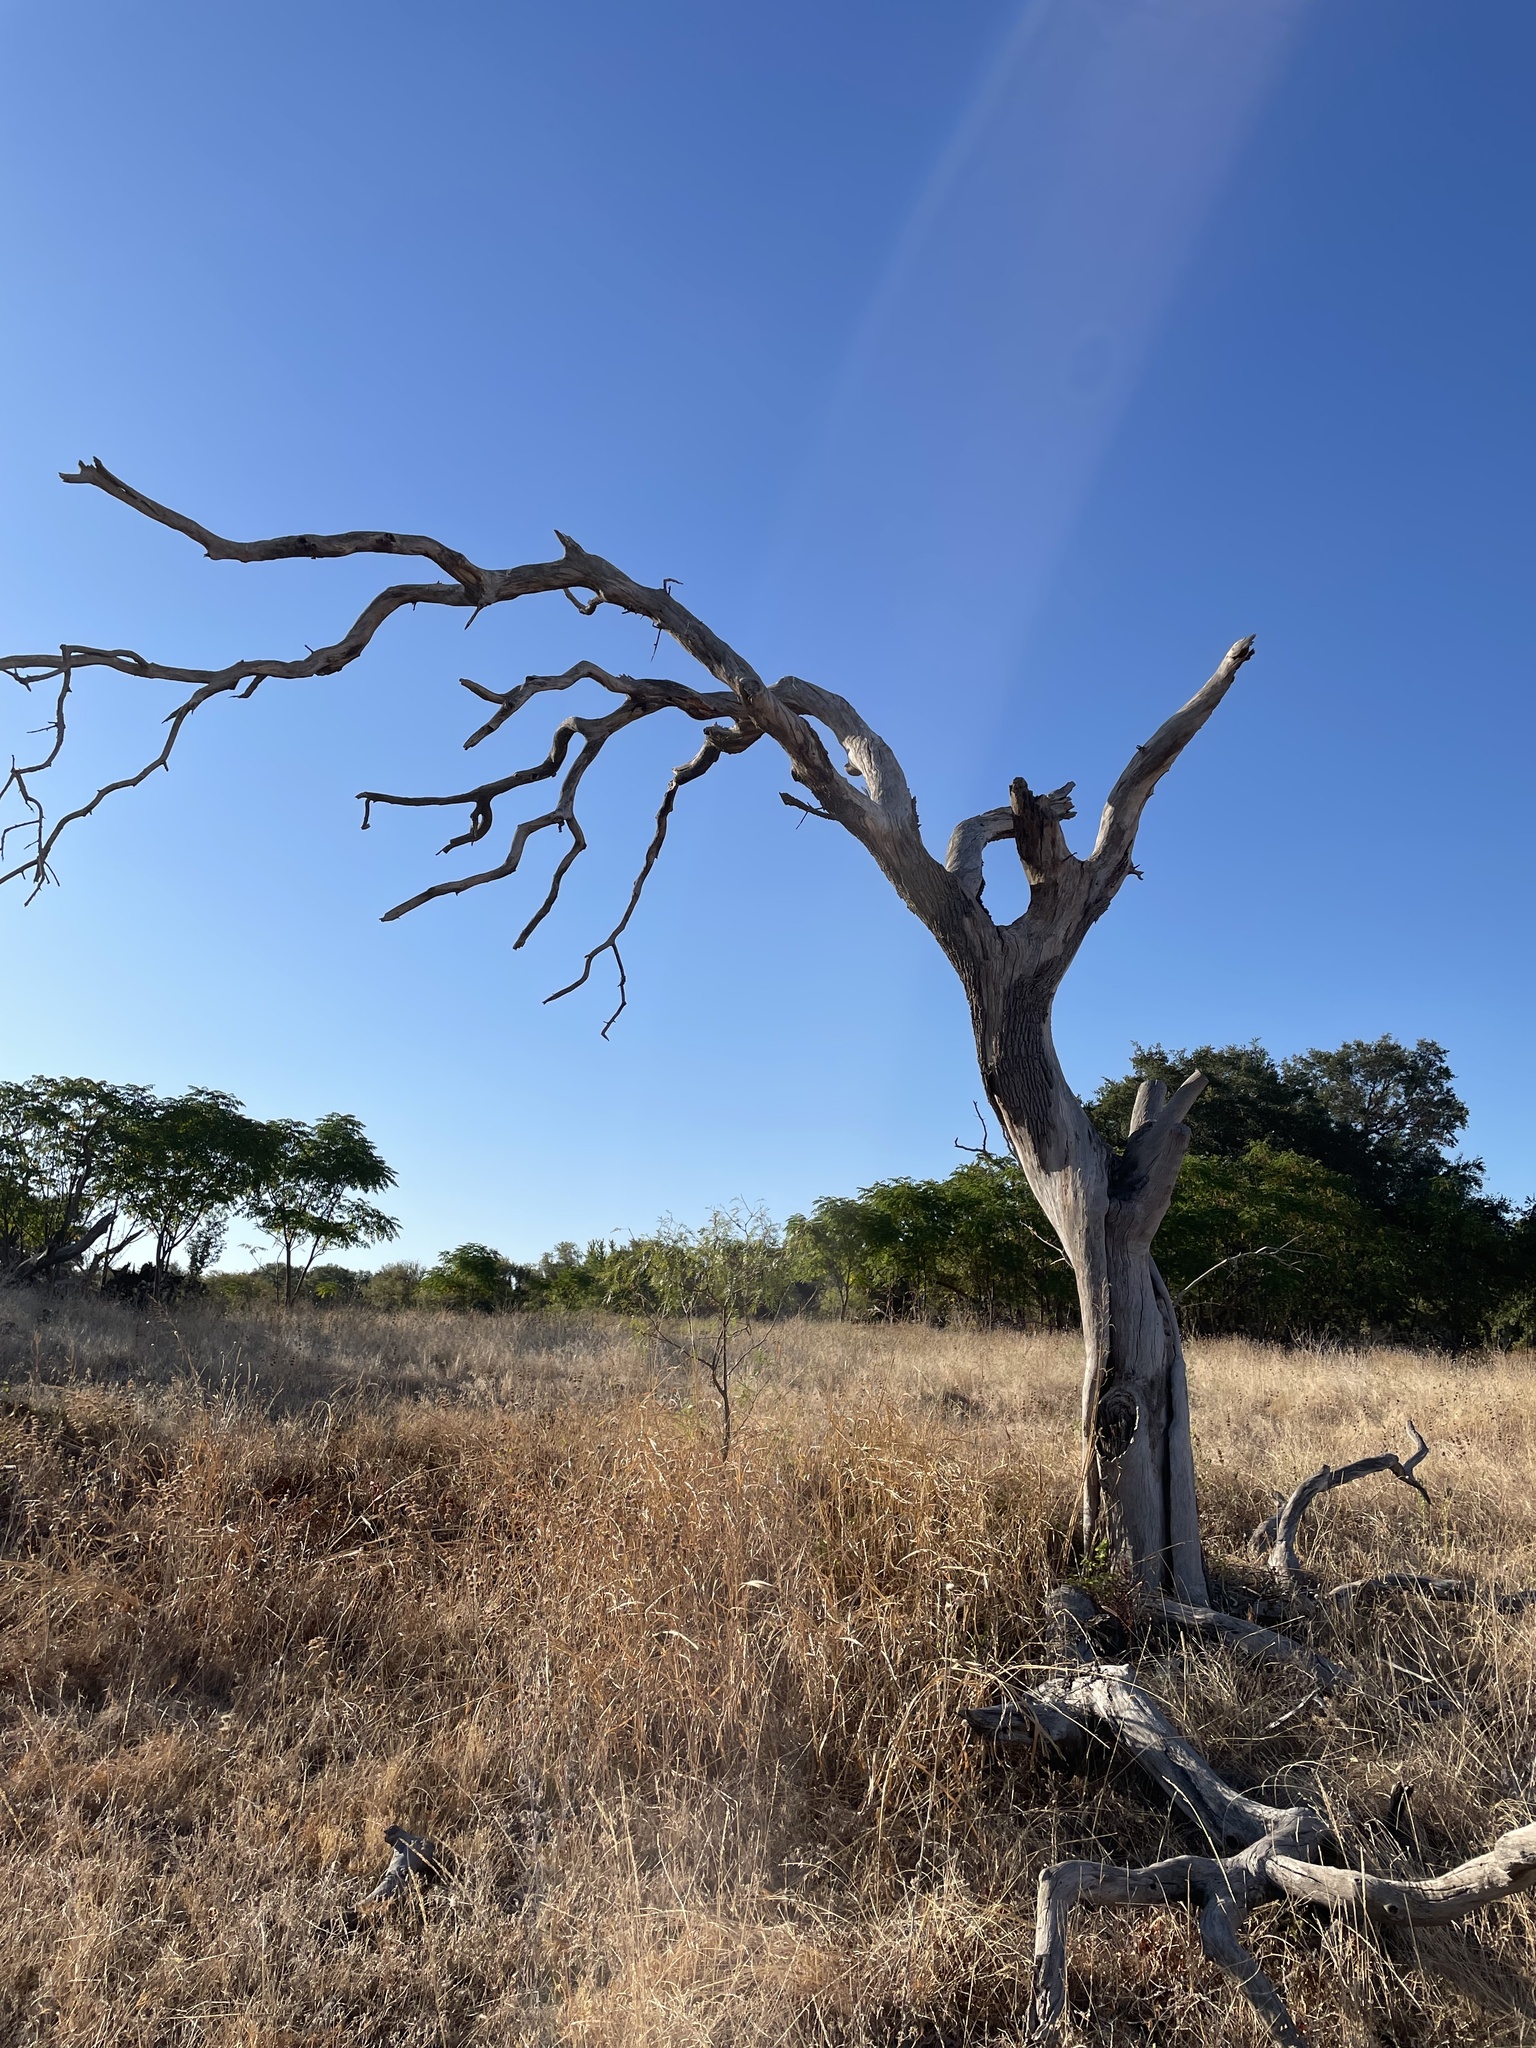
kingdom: Plantae
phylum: Tracheophyta
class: Magnoliopsida
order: Fagales
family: Fagaceae
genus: Quercus
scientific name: Quercus fusiformis
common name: Texas live oak
